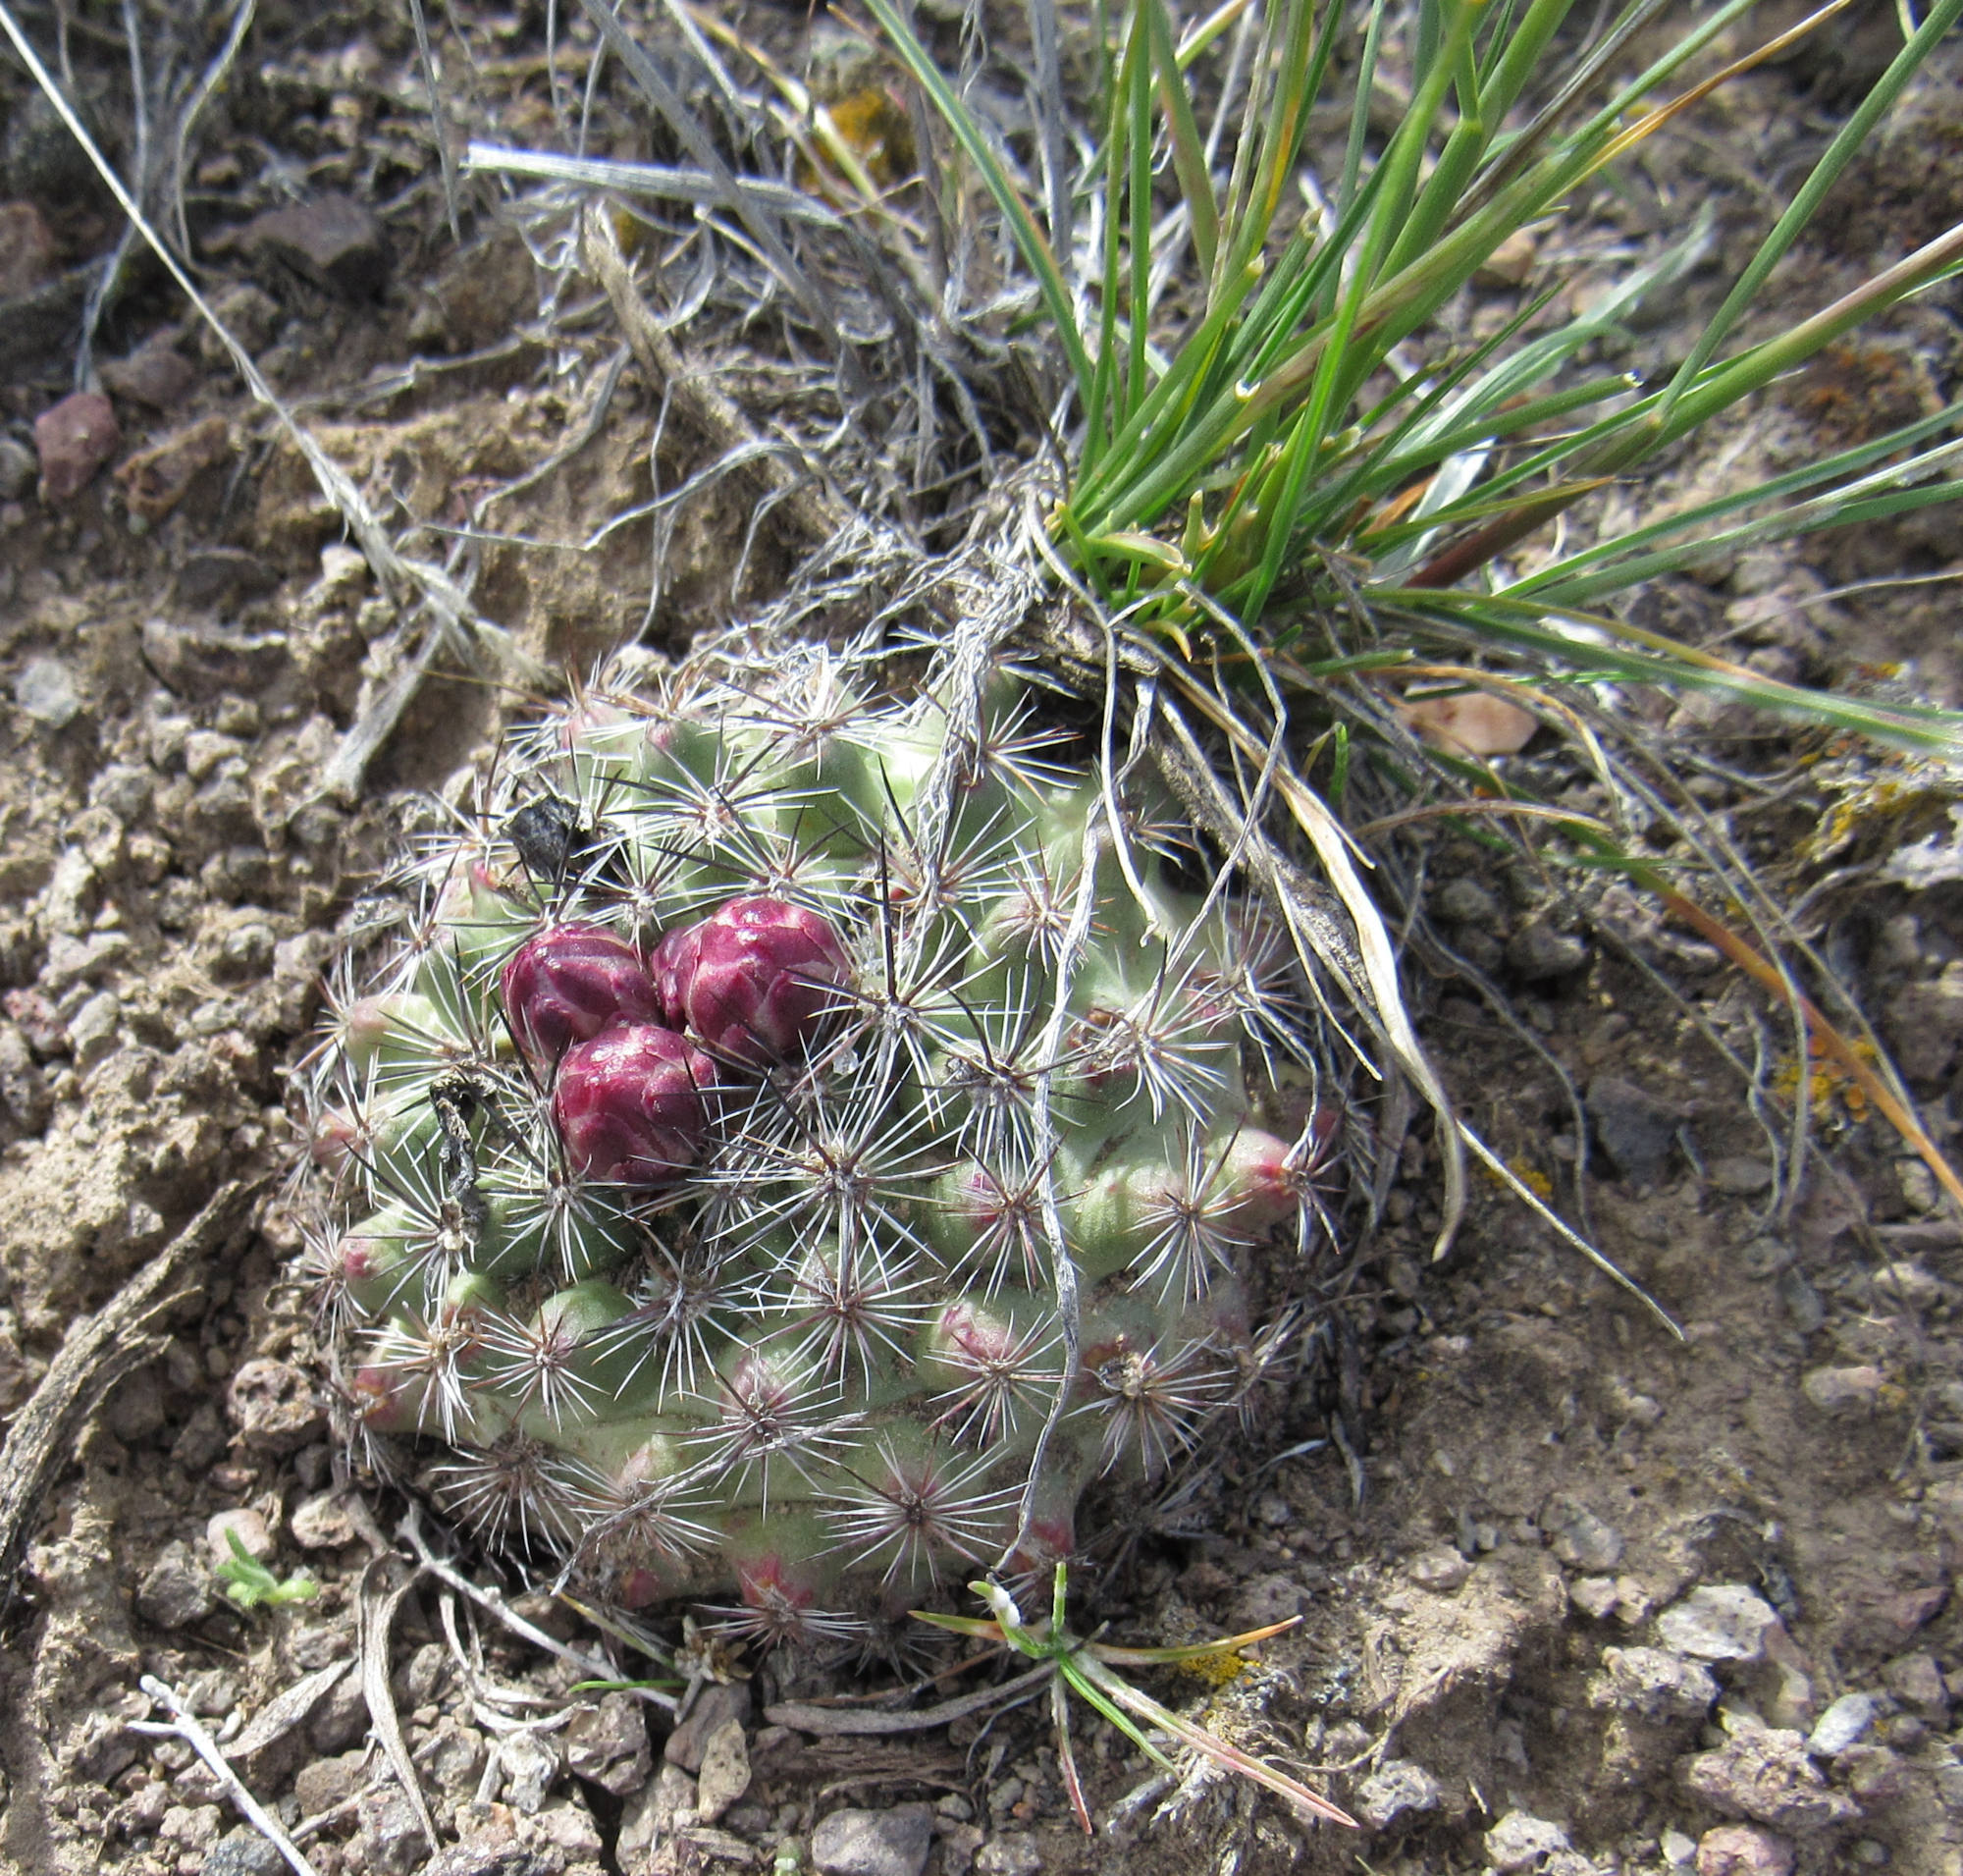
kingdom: Plantae
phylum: Tracheophyta
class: Magnoliopsida
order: Caryophyllales
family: Cactaceae
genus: Pediocactus
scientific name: Pediocactus simpsonii
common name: Simpson's hedgehog cactus
